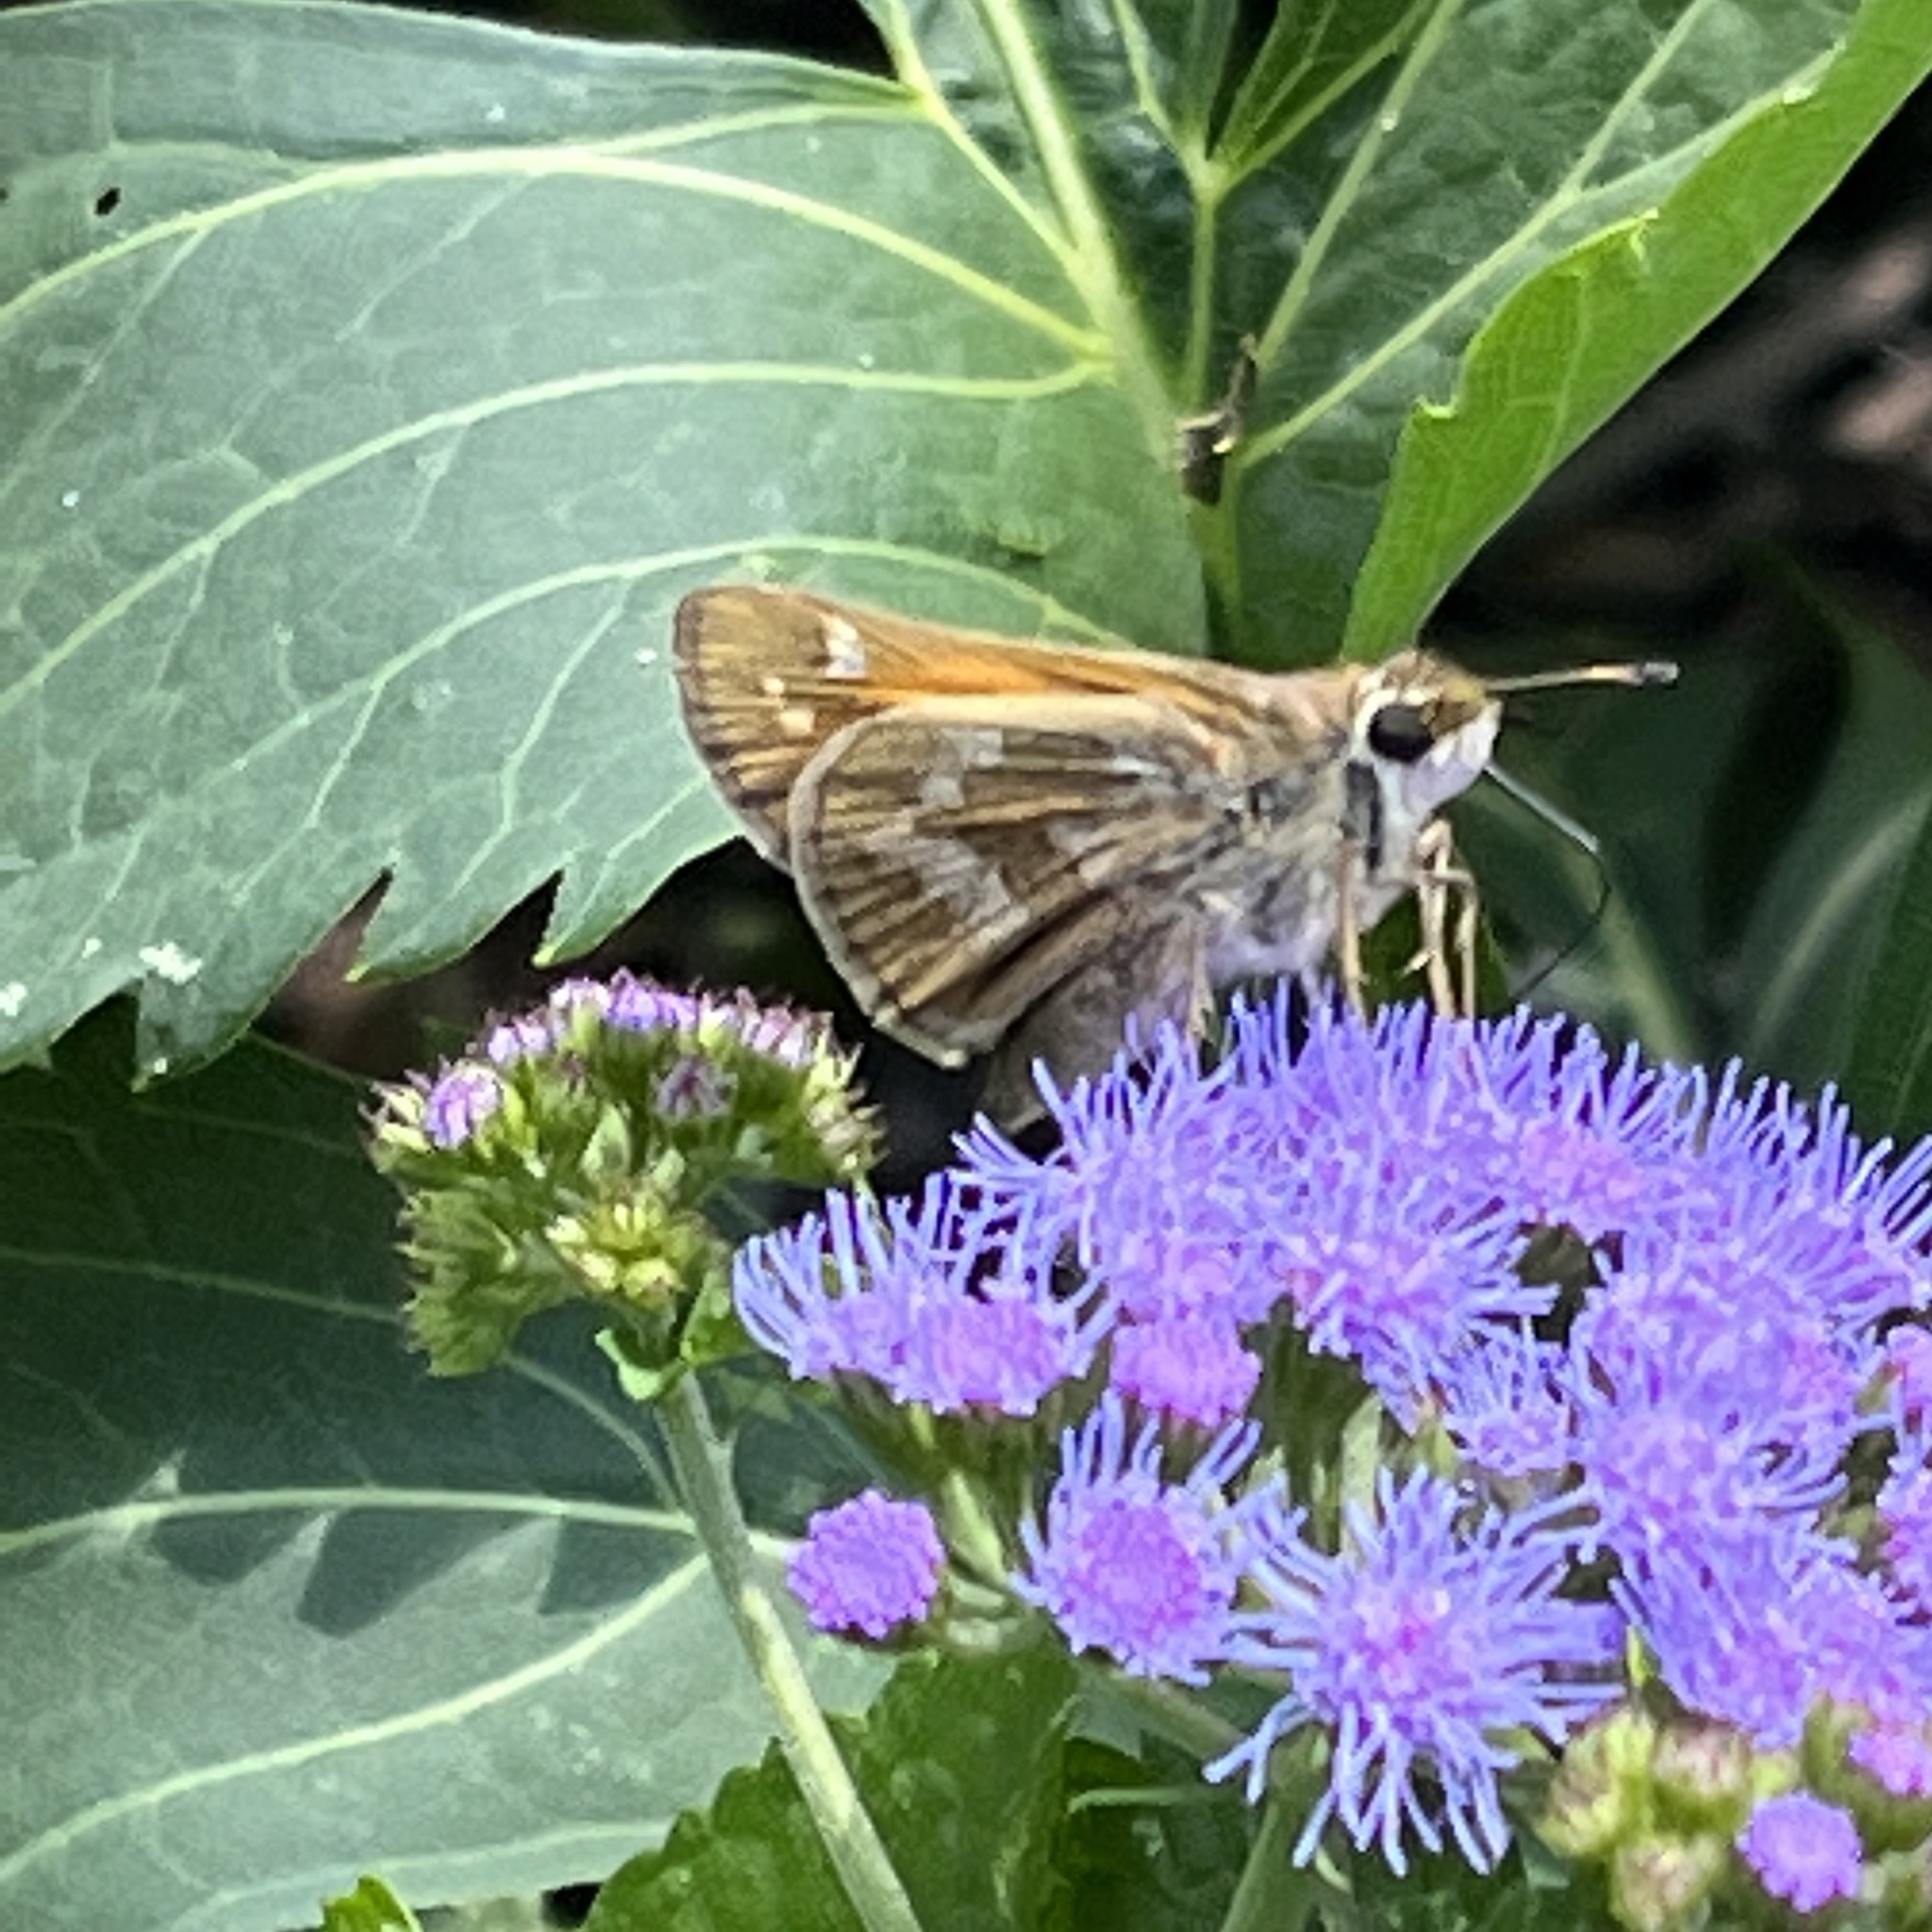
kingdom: Animalia
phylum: Arthropoda
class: Insecta
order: Lepidoptera
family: Hesperiidae
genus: Atalopedes
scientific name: Atalopedes
